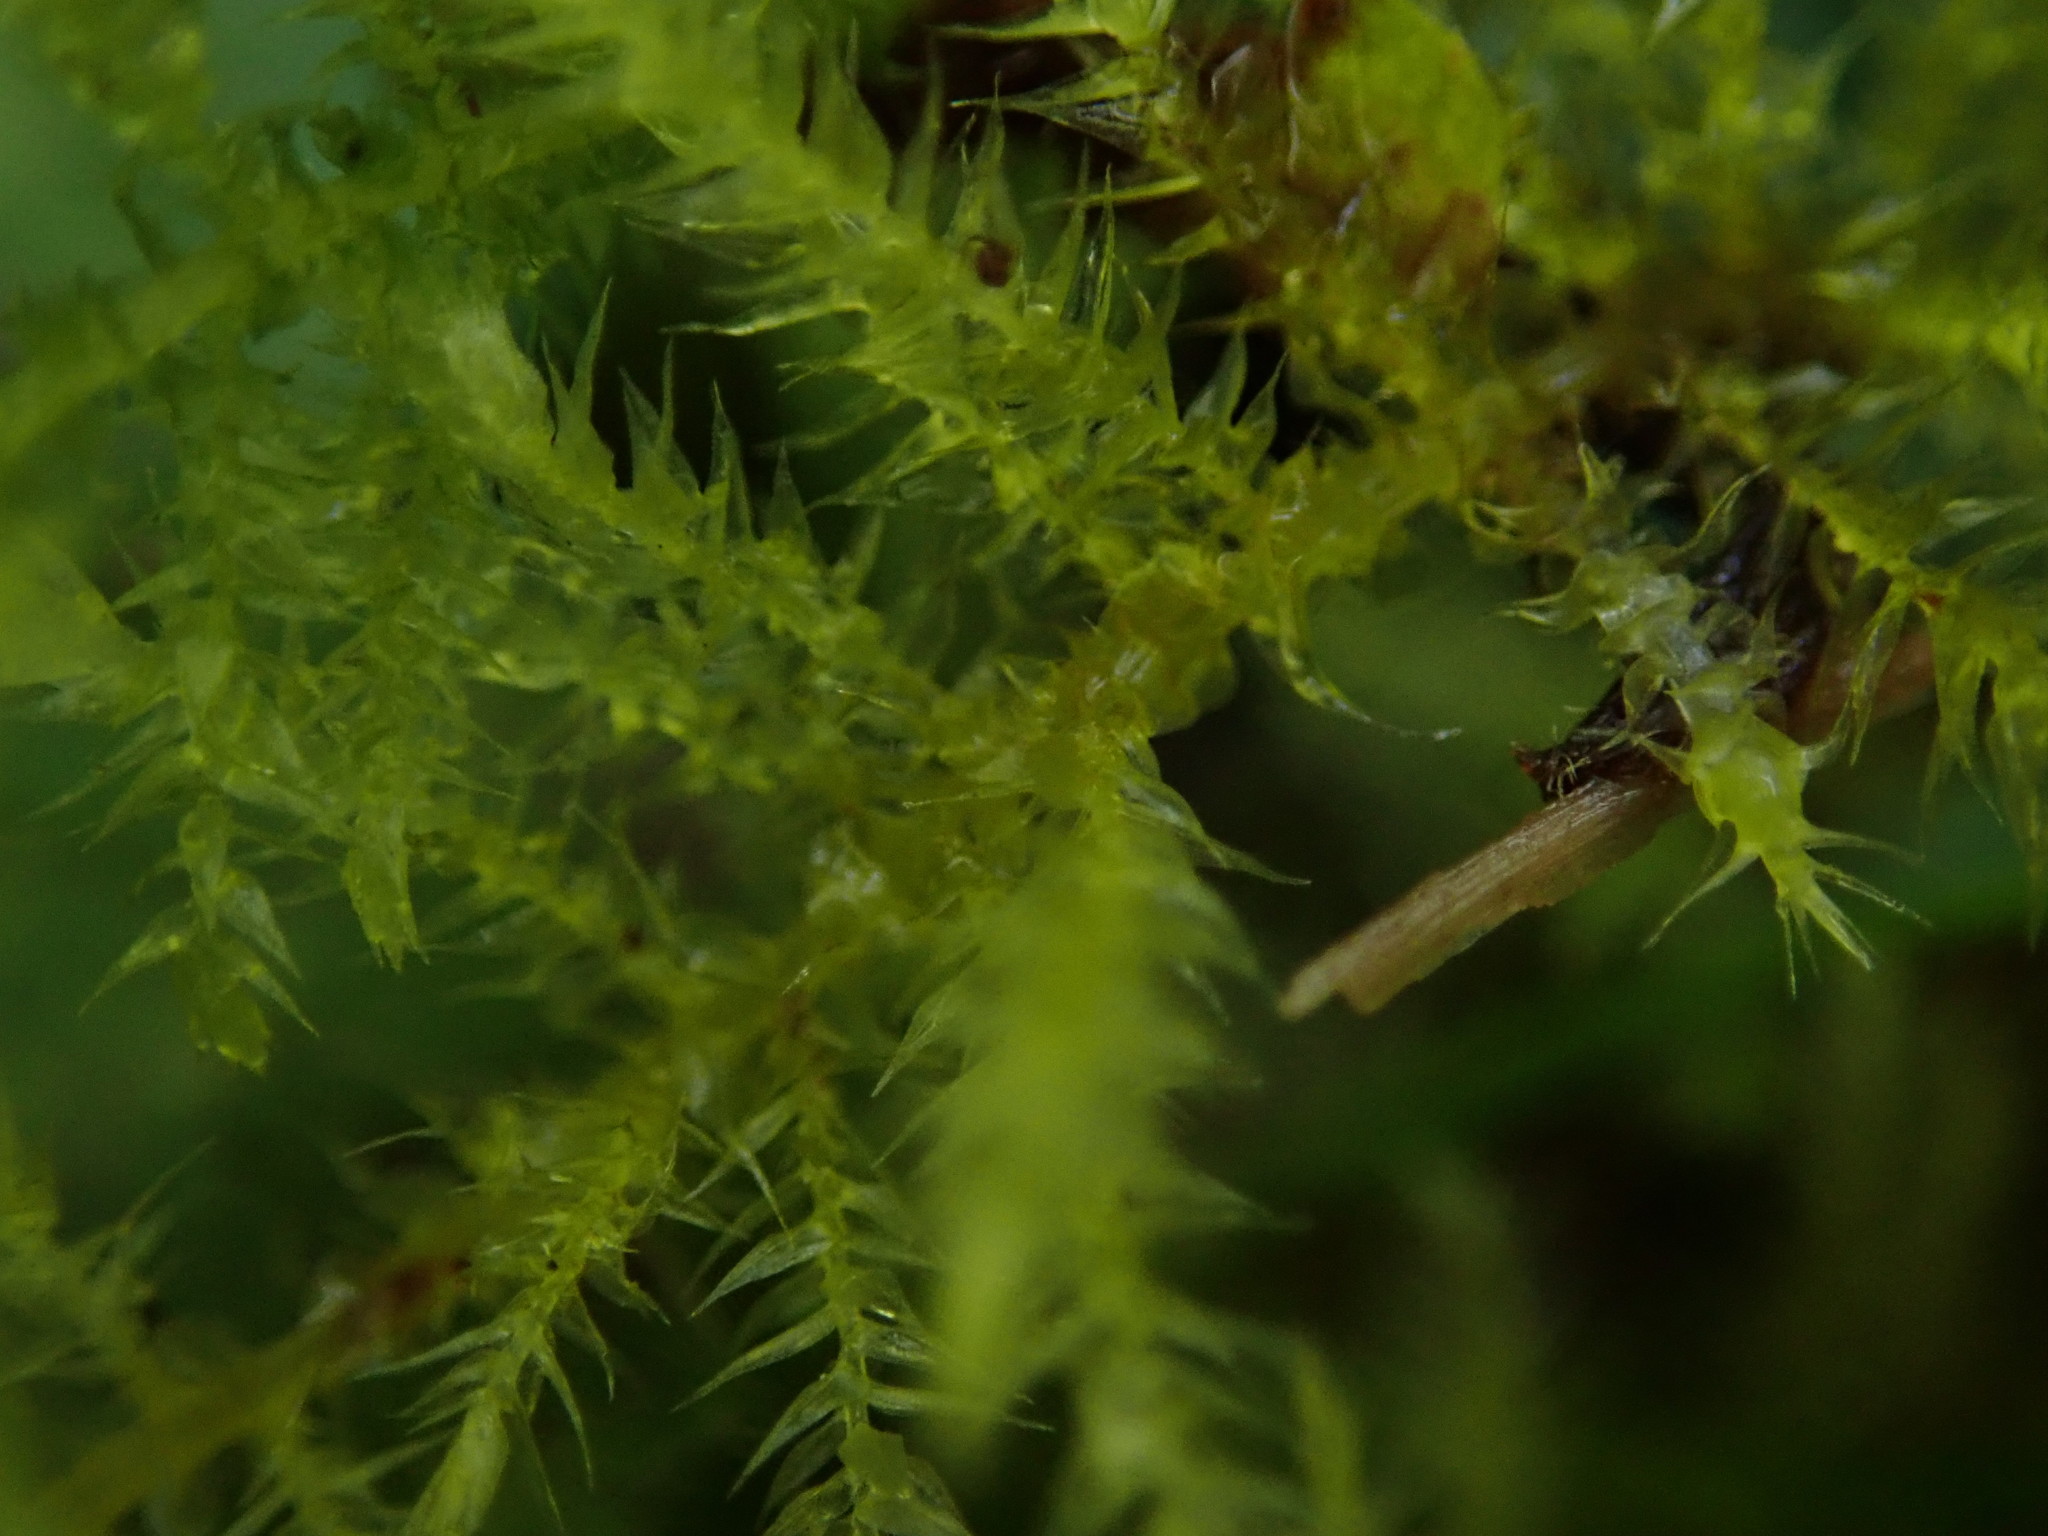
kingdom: Plantae
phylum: Bryophyta
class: Bryopsida
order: Hypnales
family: Brachytheciaceae
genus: Kindbergia
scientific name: Kindbergia praelonga
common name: Slender beaked moss
